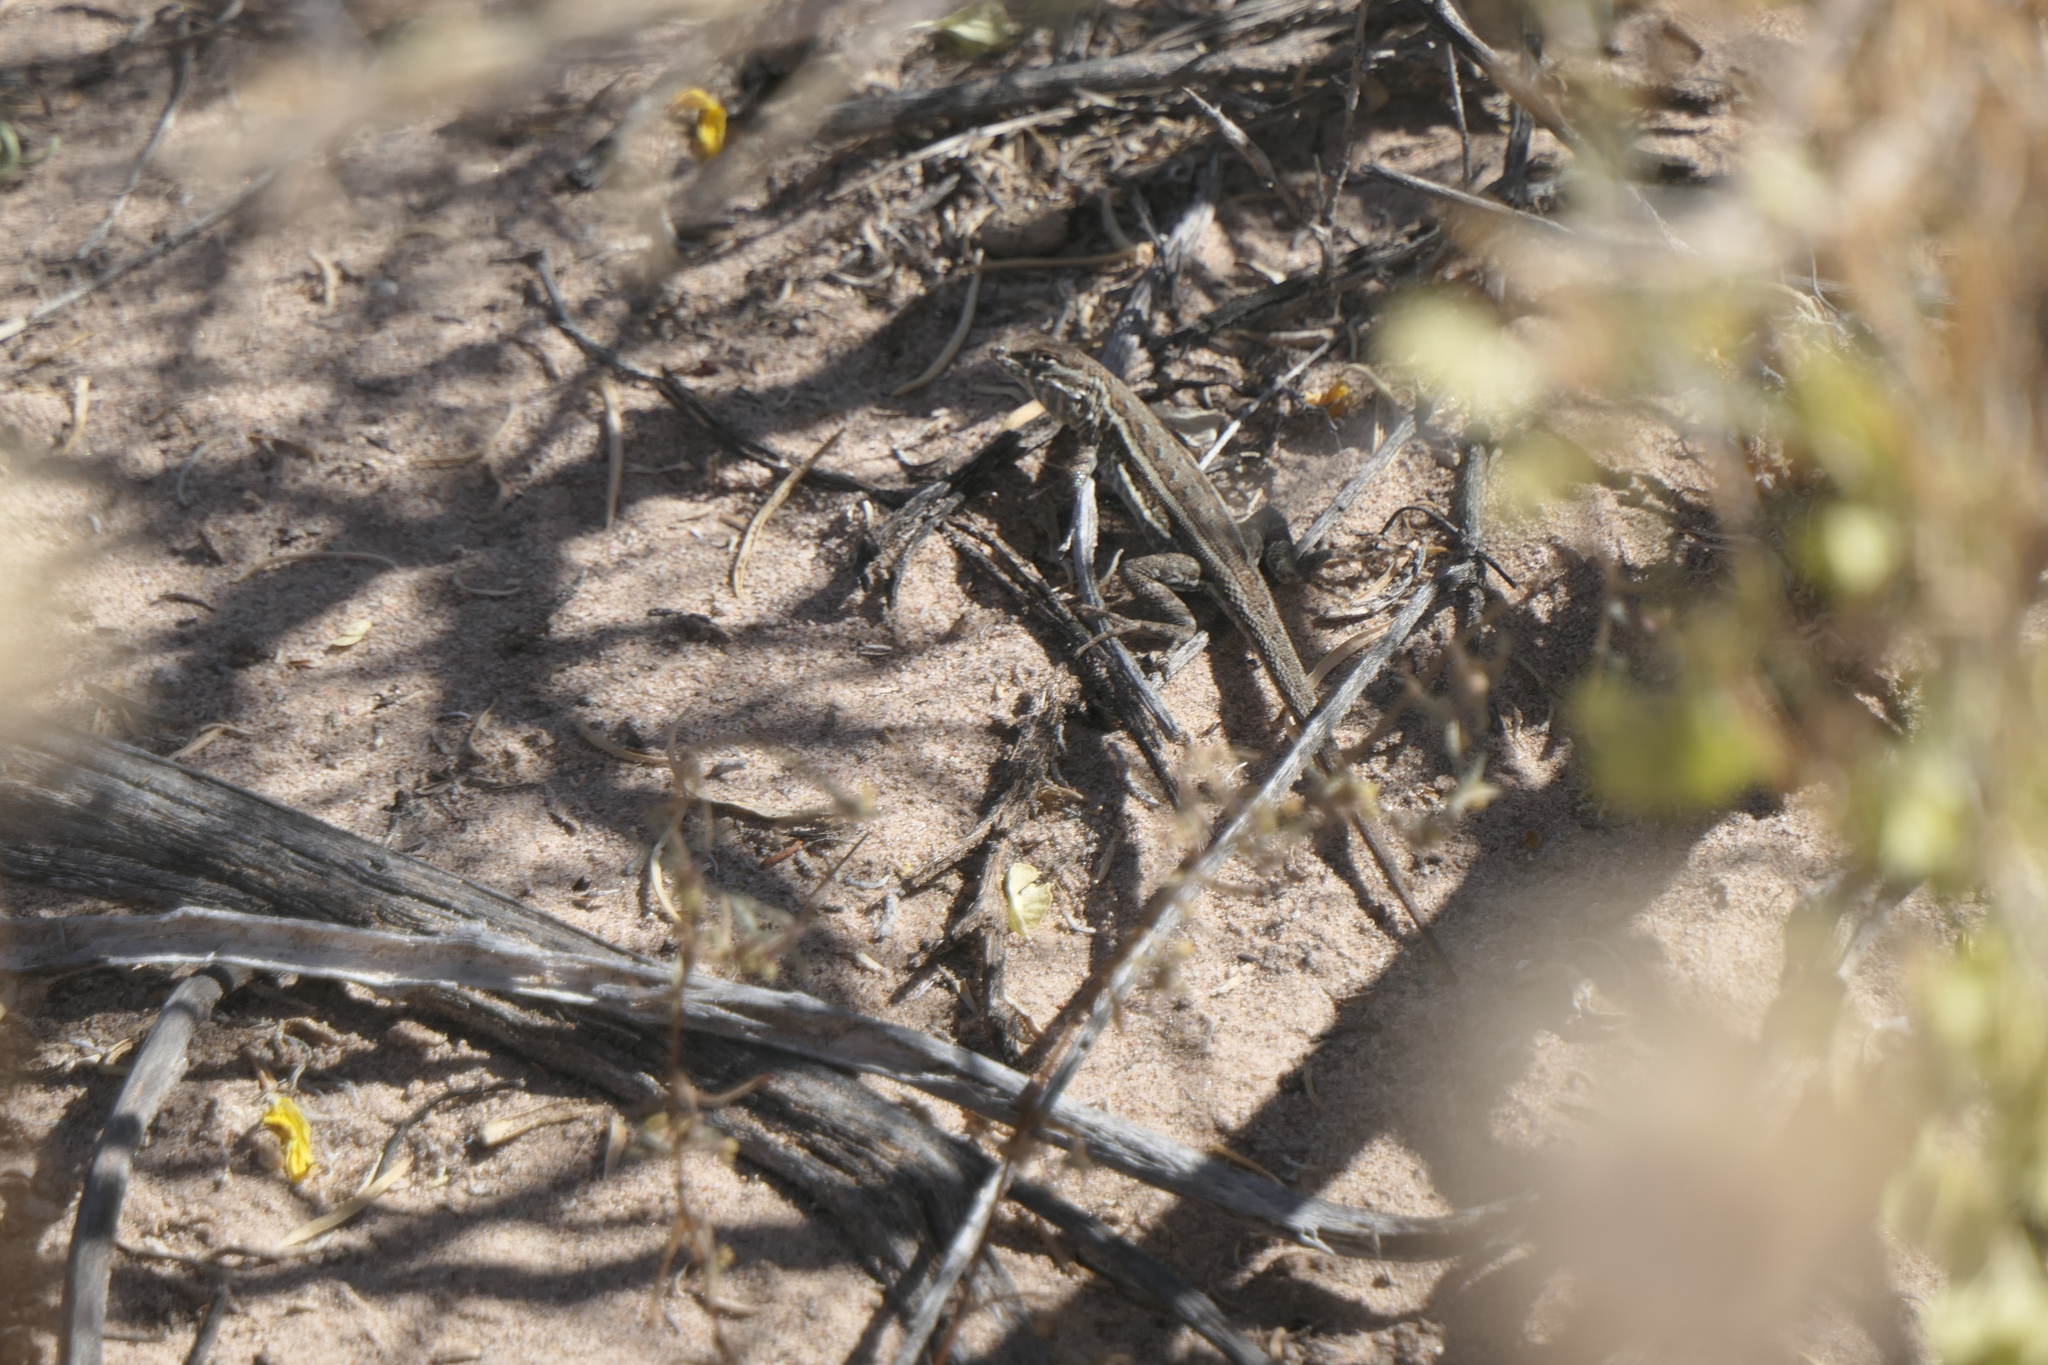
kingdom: Animalia
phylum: Chordata
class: Squamata
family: Phrynosomatidae
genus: Uta
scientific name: Uta stansburiana
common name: Side-blotched lizard
